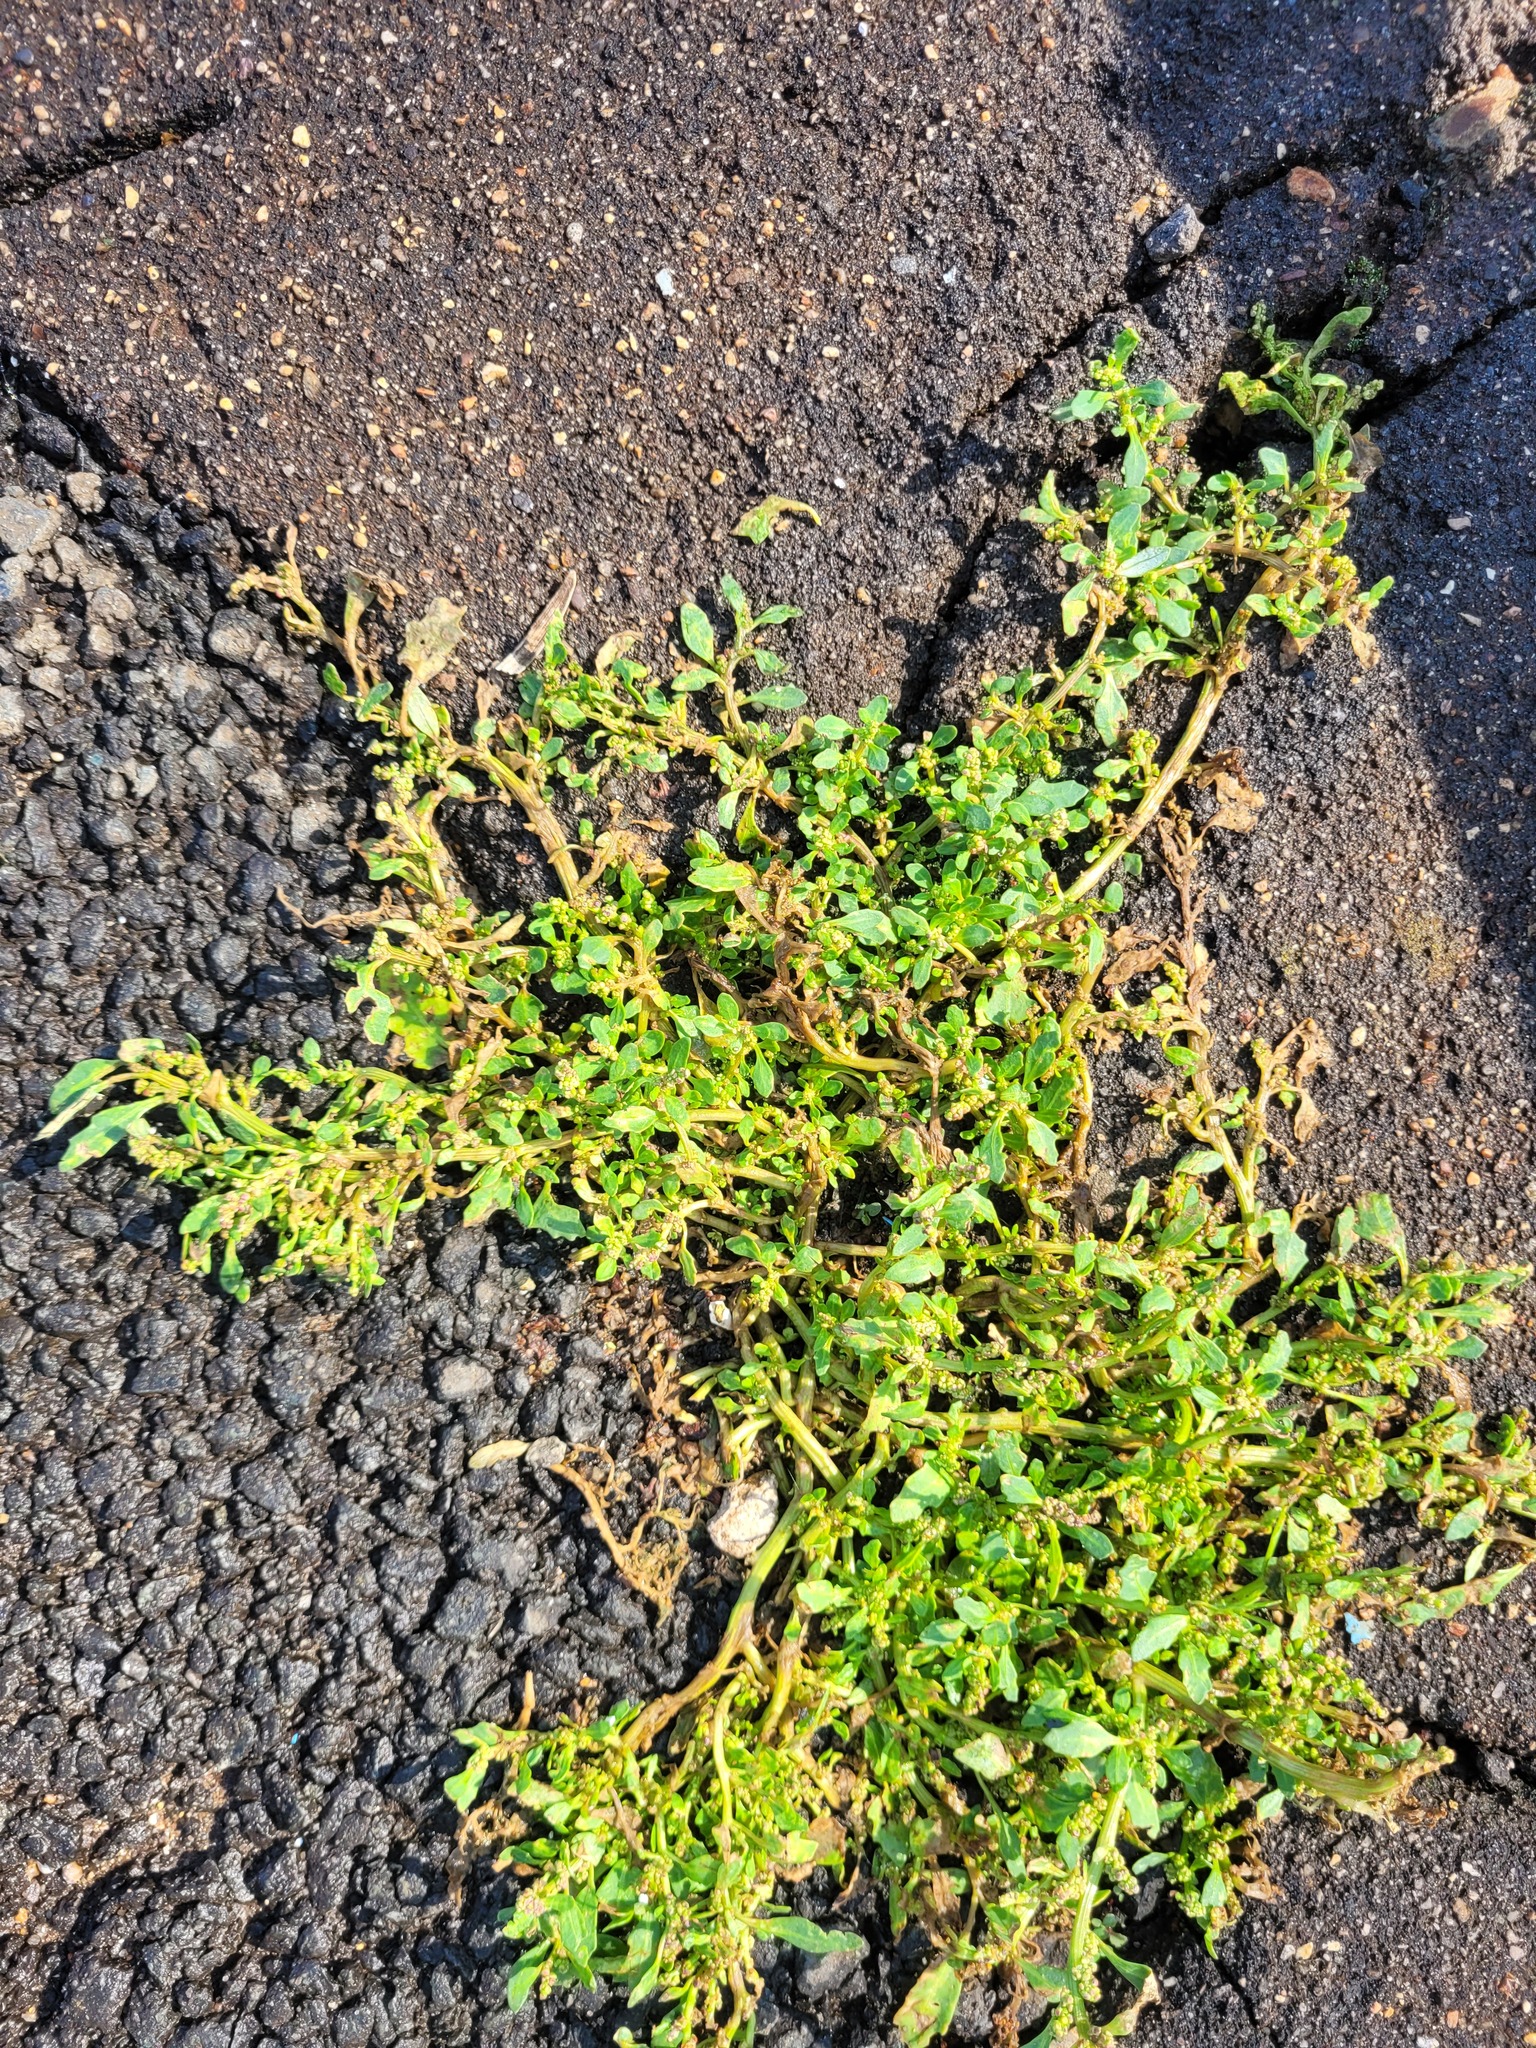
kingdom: Plantae
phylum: Tracheophyta
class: Magnoliopsida
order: Caryophyllales
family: Amaranthaceae
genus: Oxybasis
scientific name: Oxybasis glauca
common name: Glaucous goosefoot
